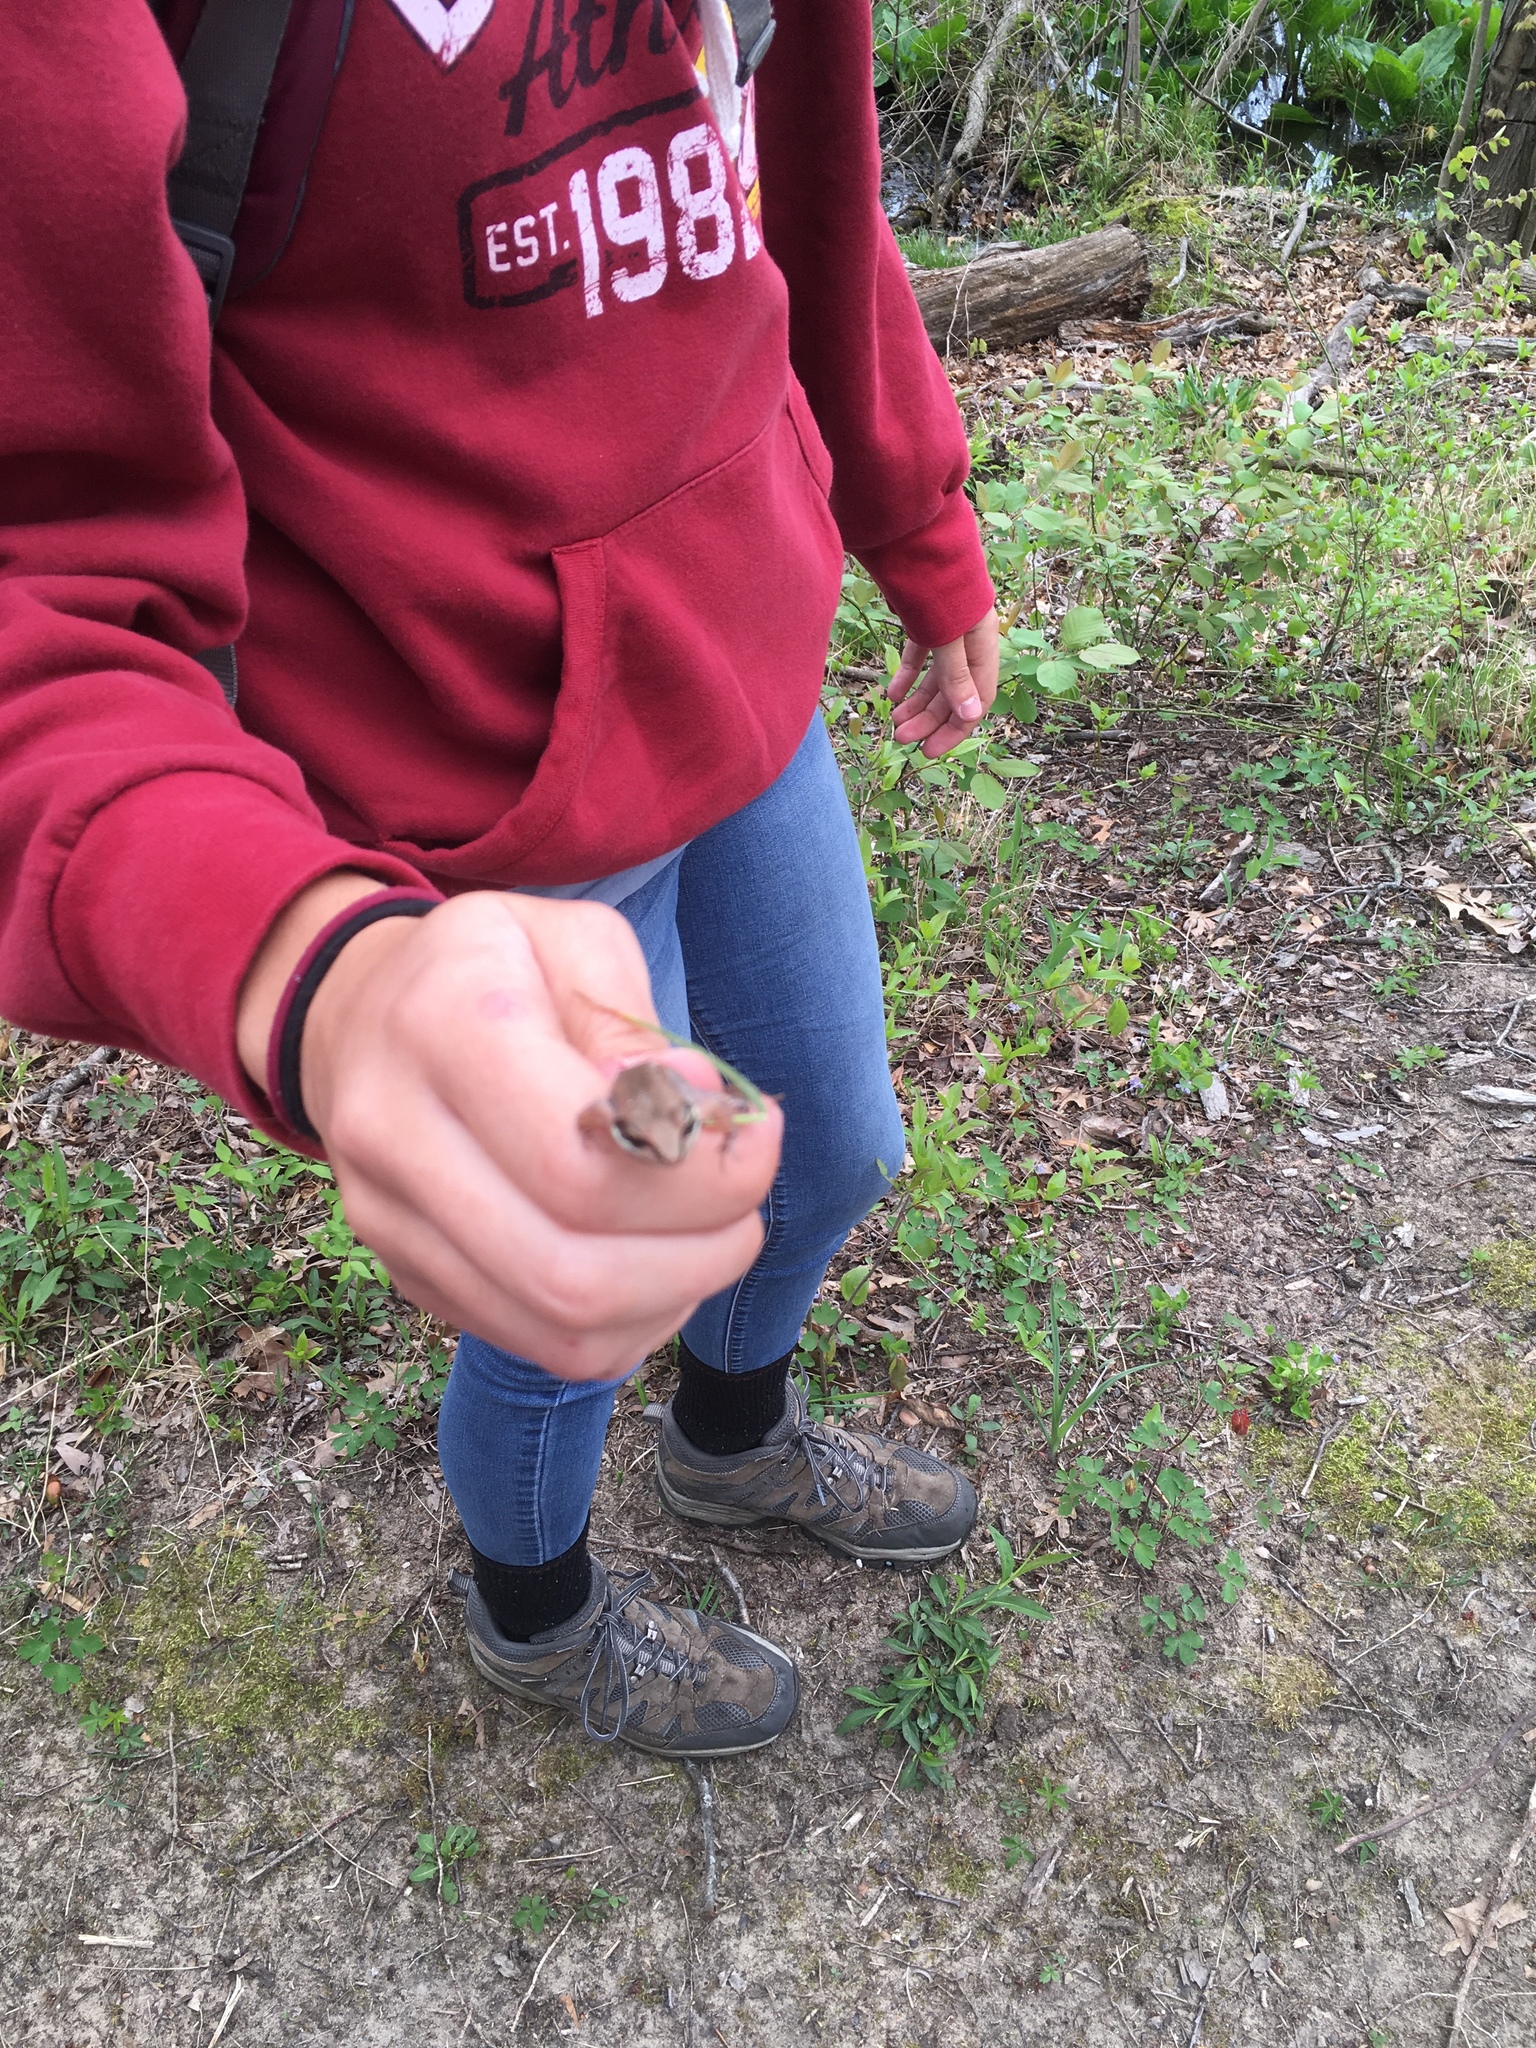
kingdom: Animalia
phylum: Chordata
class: Amphibia
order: Anura
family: Ranidae
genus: Lithobates
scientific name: Lithobates sylvaticus
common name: Wood frog
